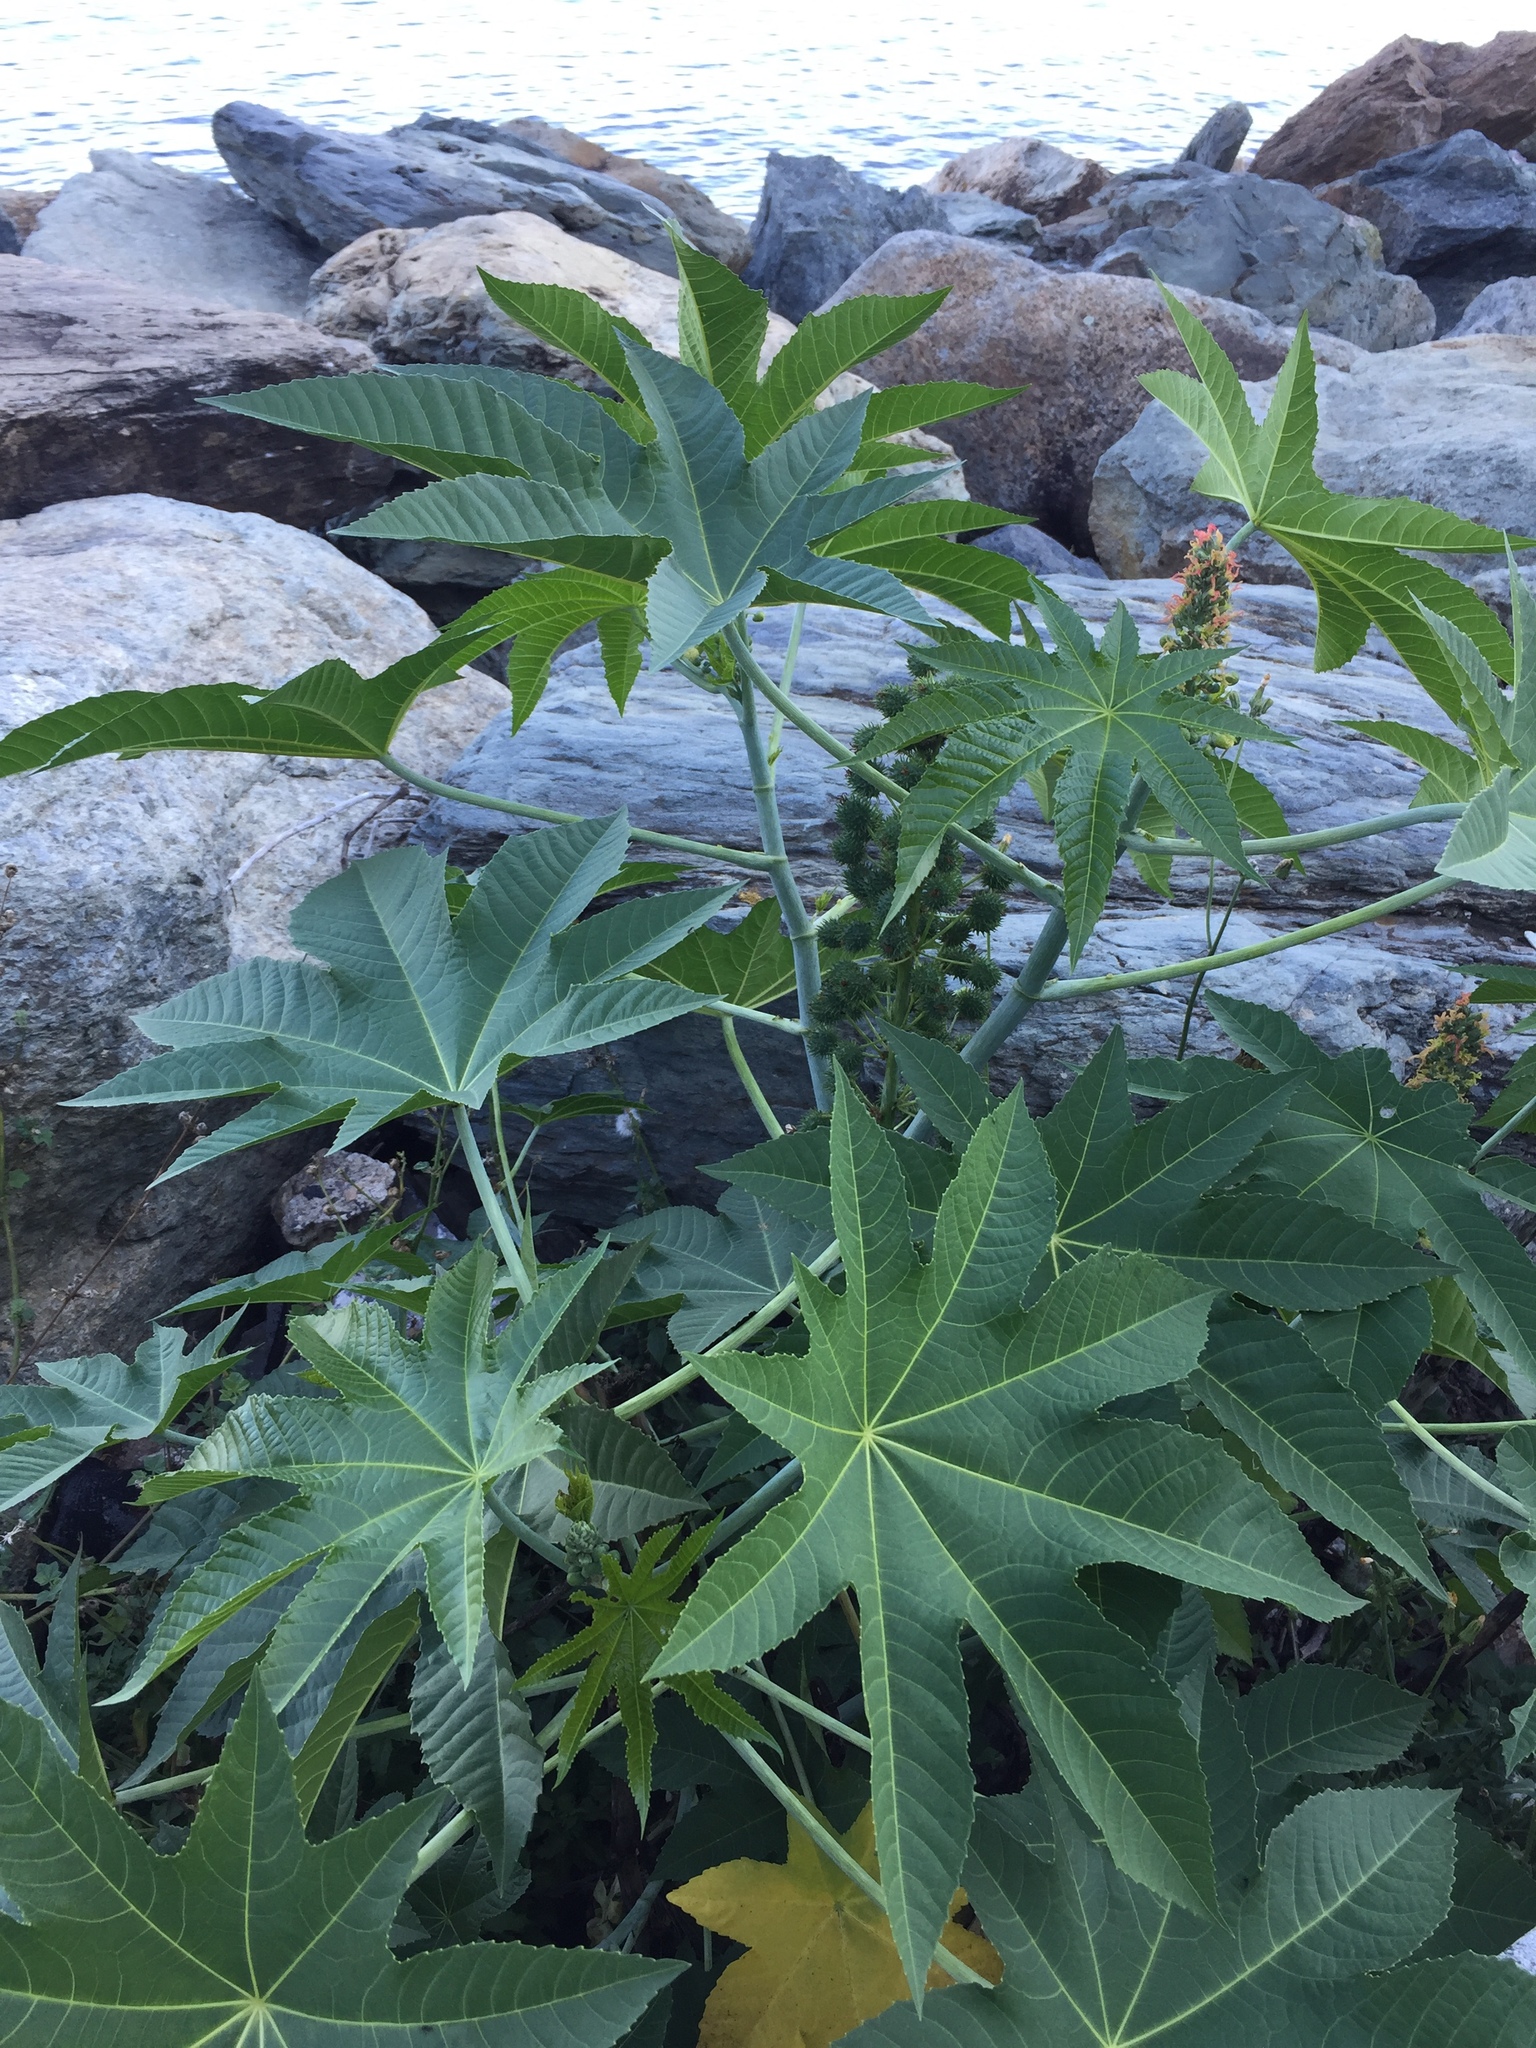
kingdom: Plantae
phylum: Tracheophyta
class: Magnoliopsida
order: Malpighiales
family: Euphorbiaceae
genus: Ricinus
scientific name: Ricinus communis
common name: Castor-oil-plant
